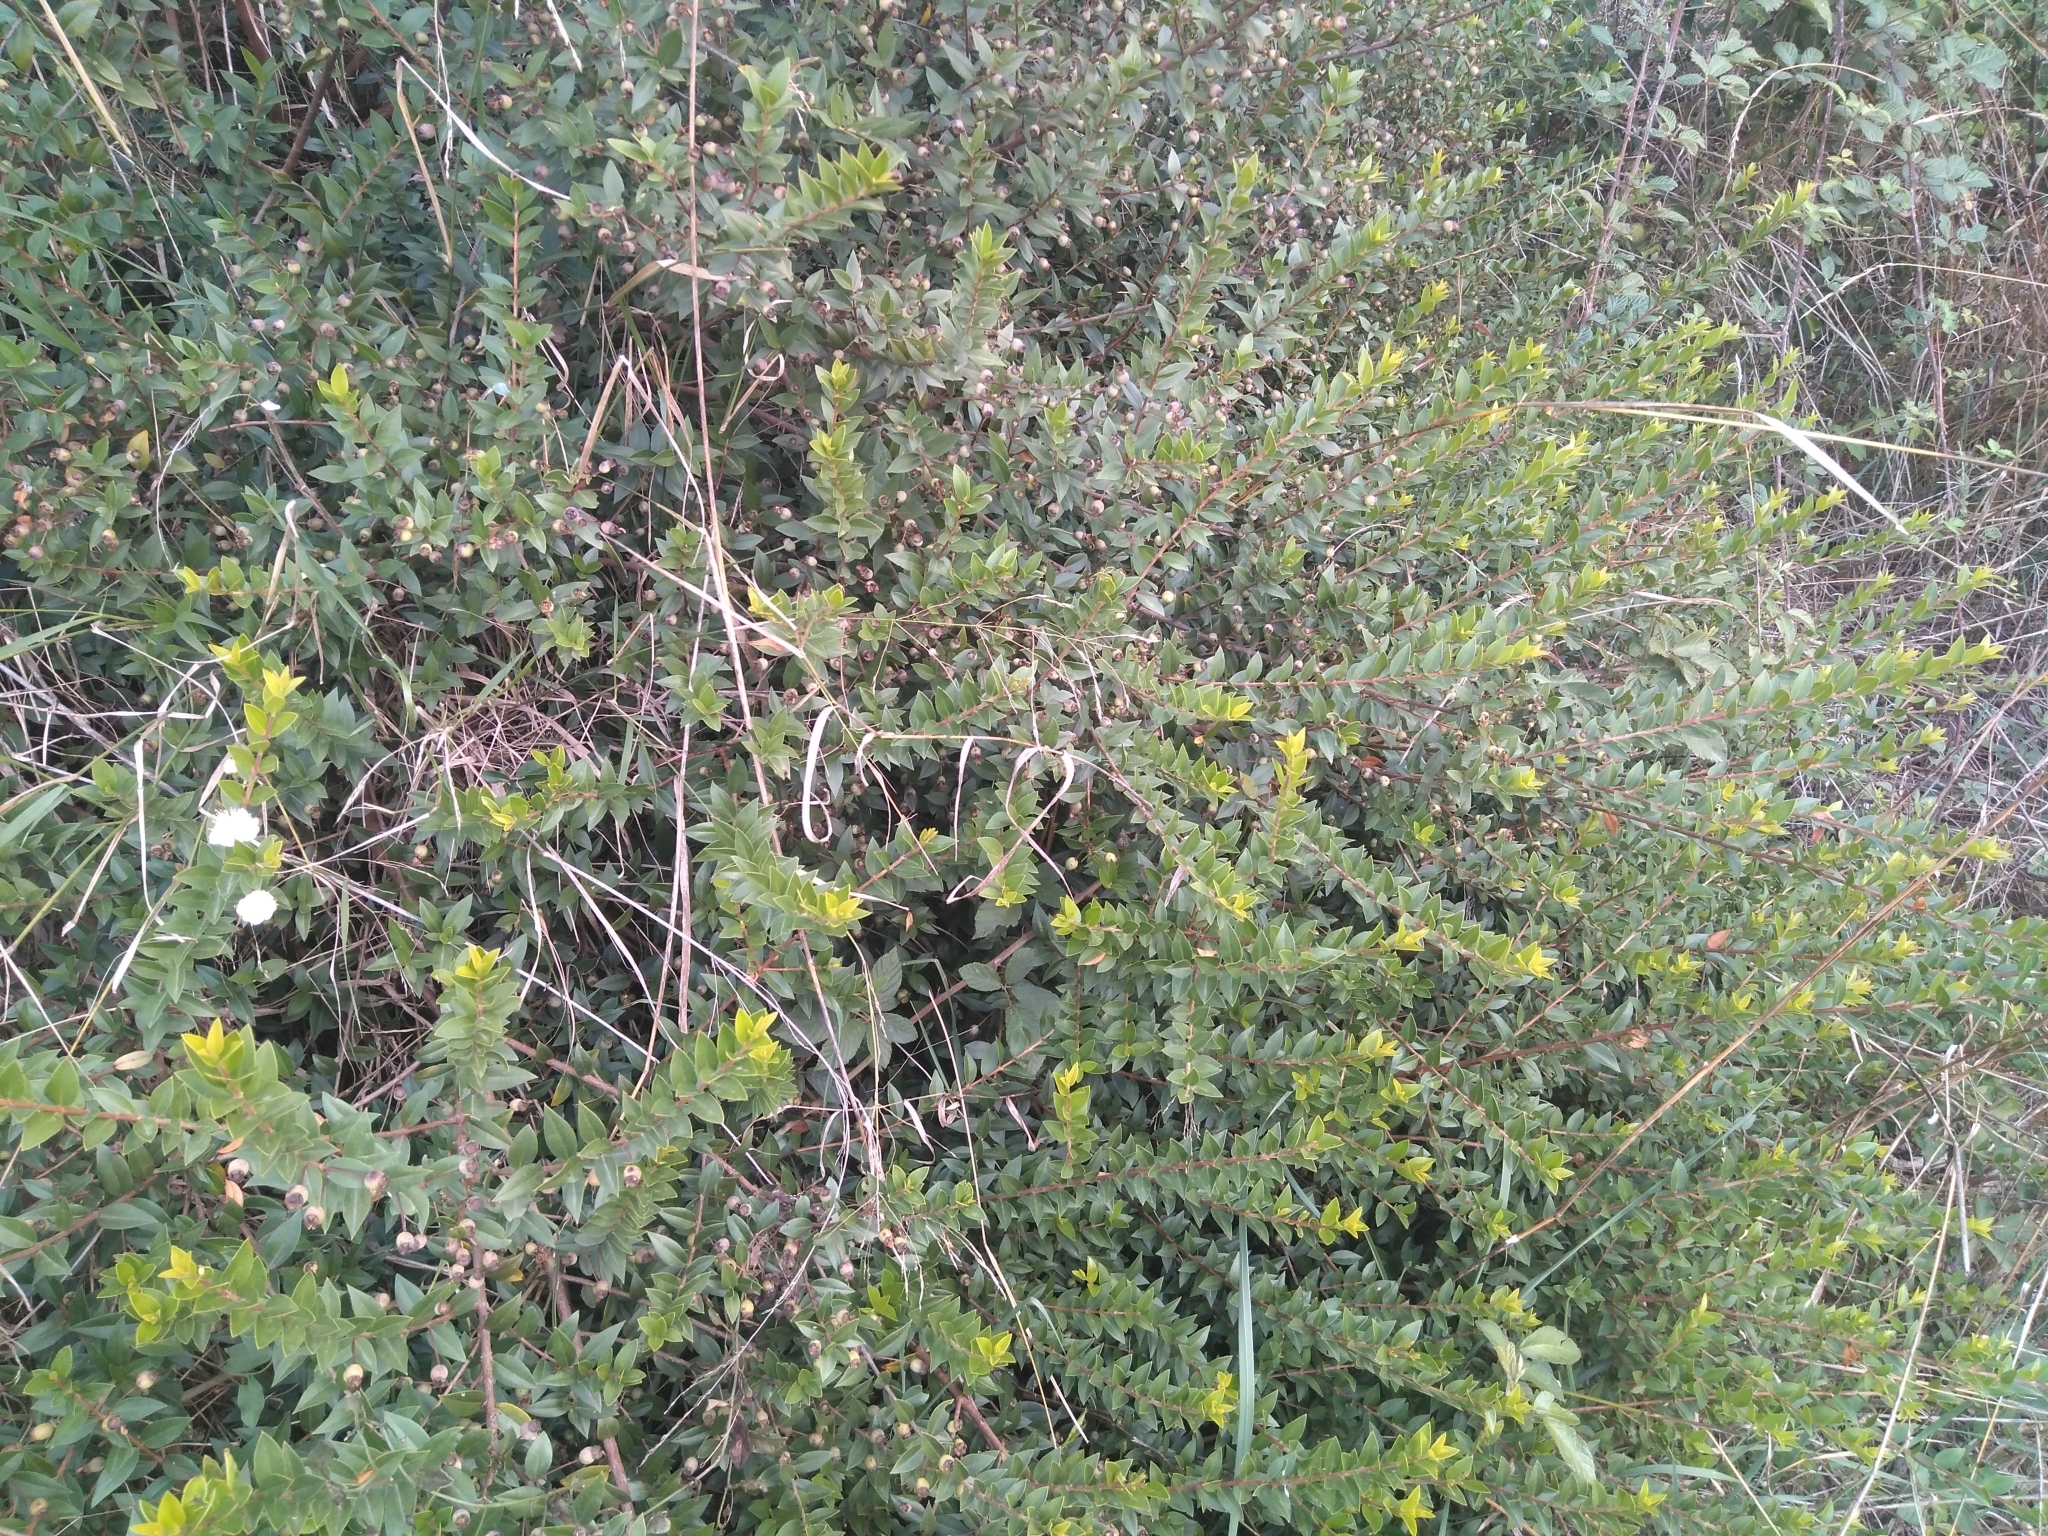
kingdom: Plantae
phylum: Tracheophyta
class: Magnoliopsida
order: Myrtales
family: Myrtaceae
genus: Myrtus
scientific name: Myrtus communis
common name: Myrtle
